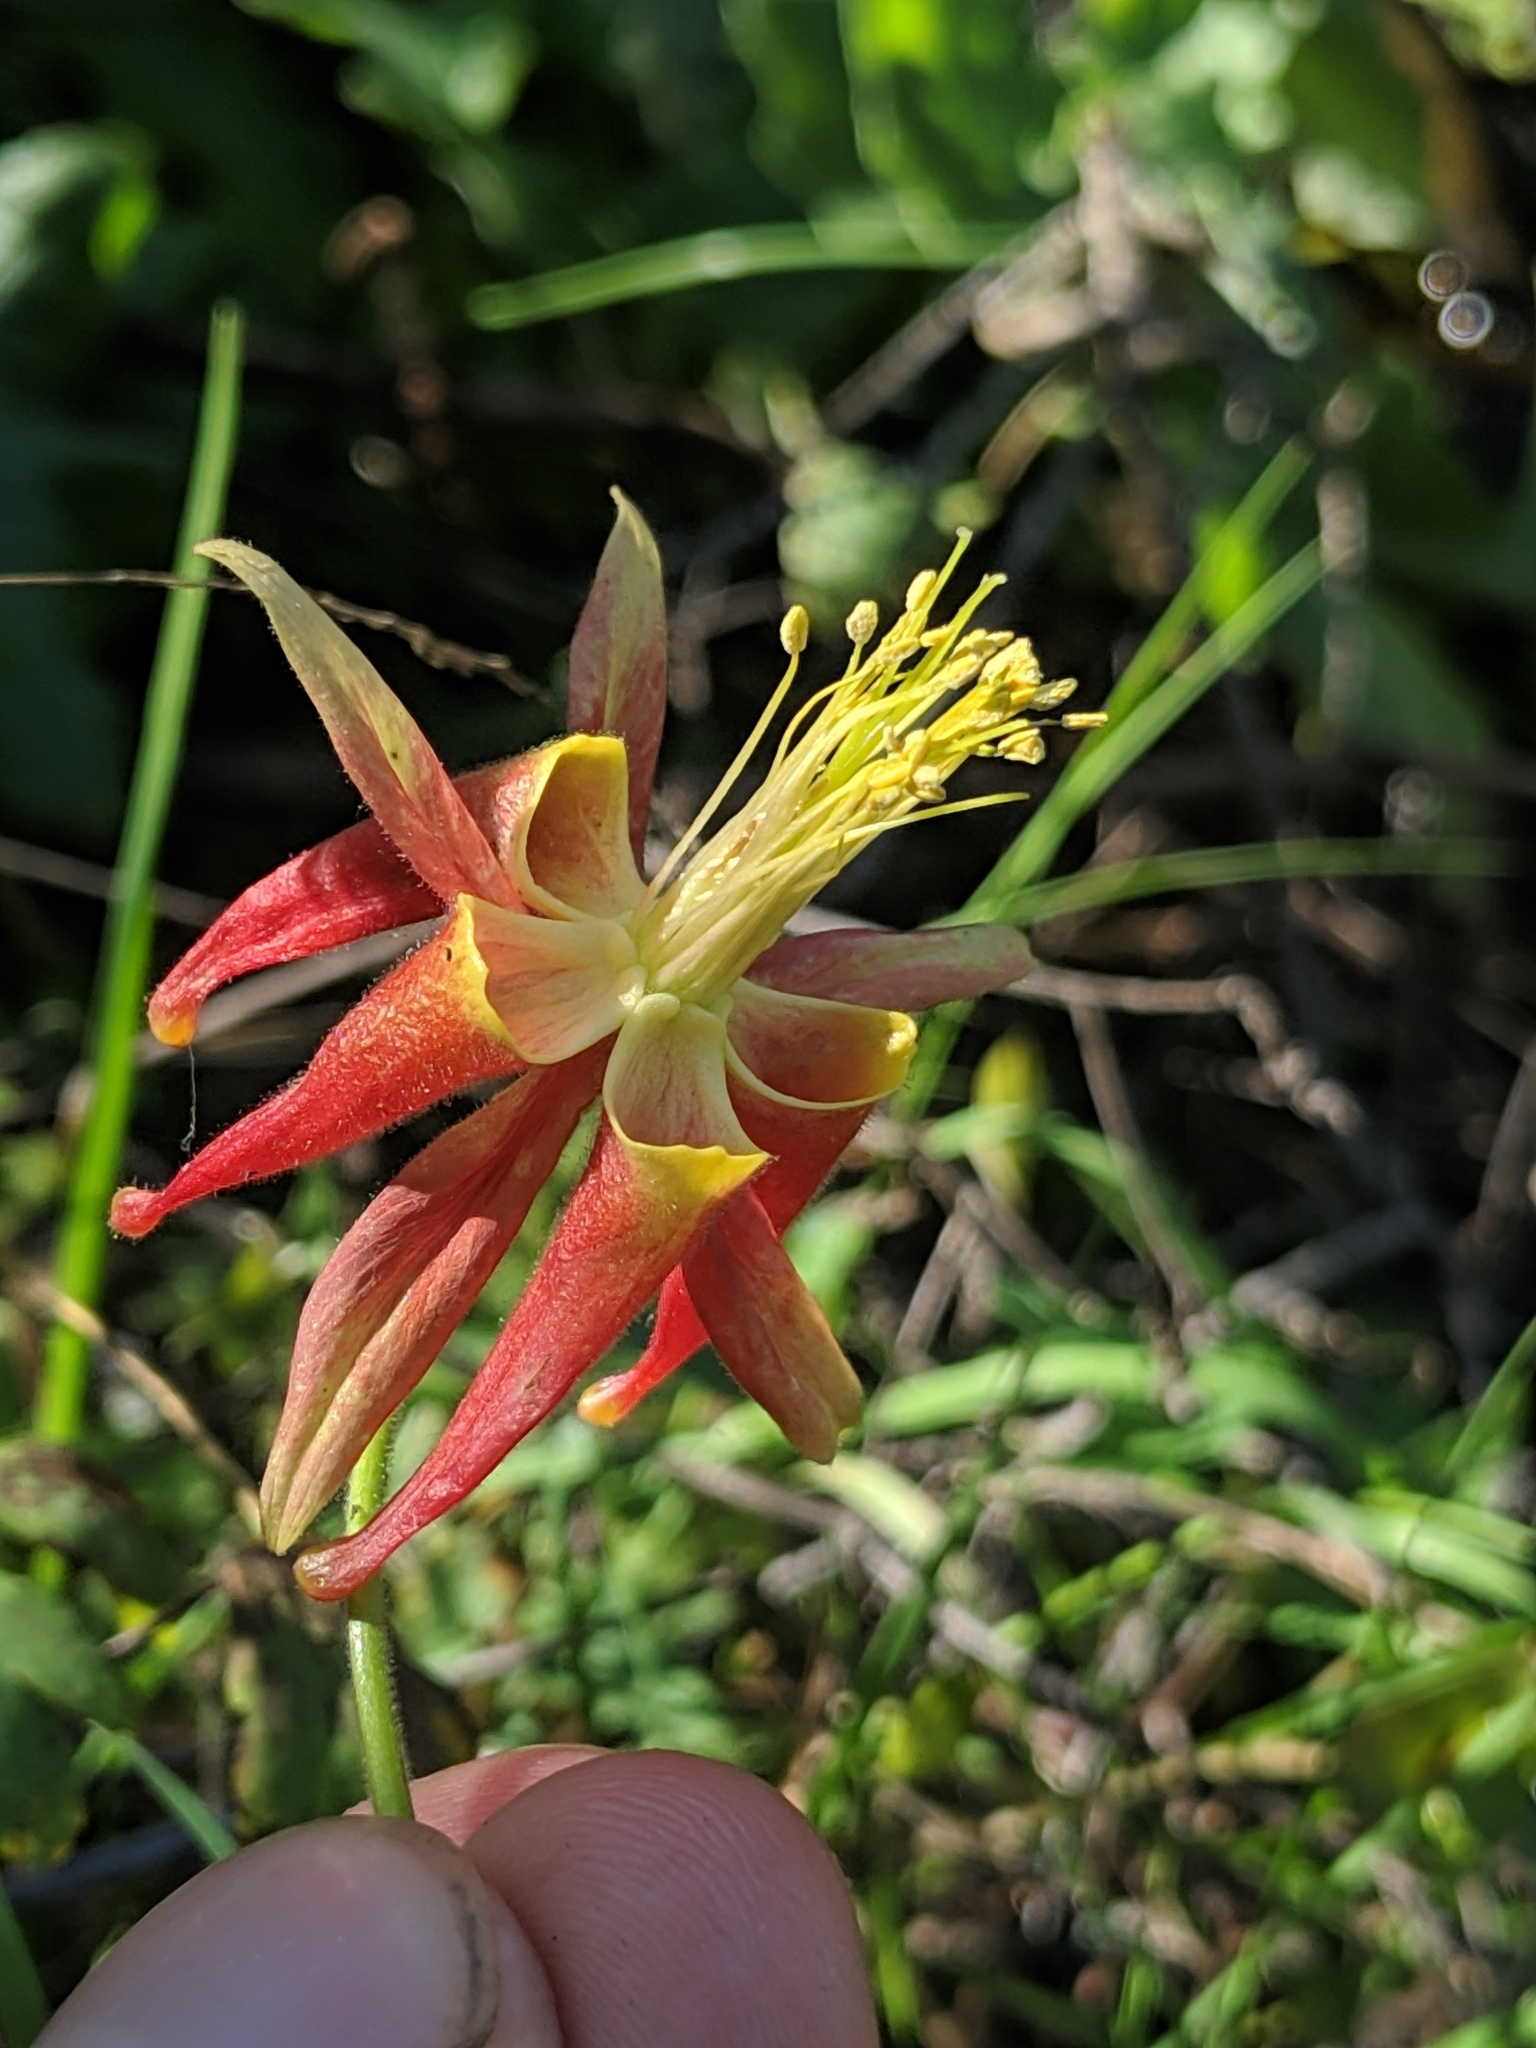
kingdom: Plantae
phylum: Tracheophyta
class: Magnoliopsida
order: Ranunculales
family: Ranunculaceae
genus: Aquilegia
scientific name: Aquilegia eximia
